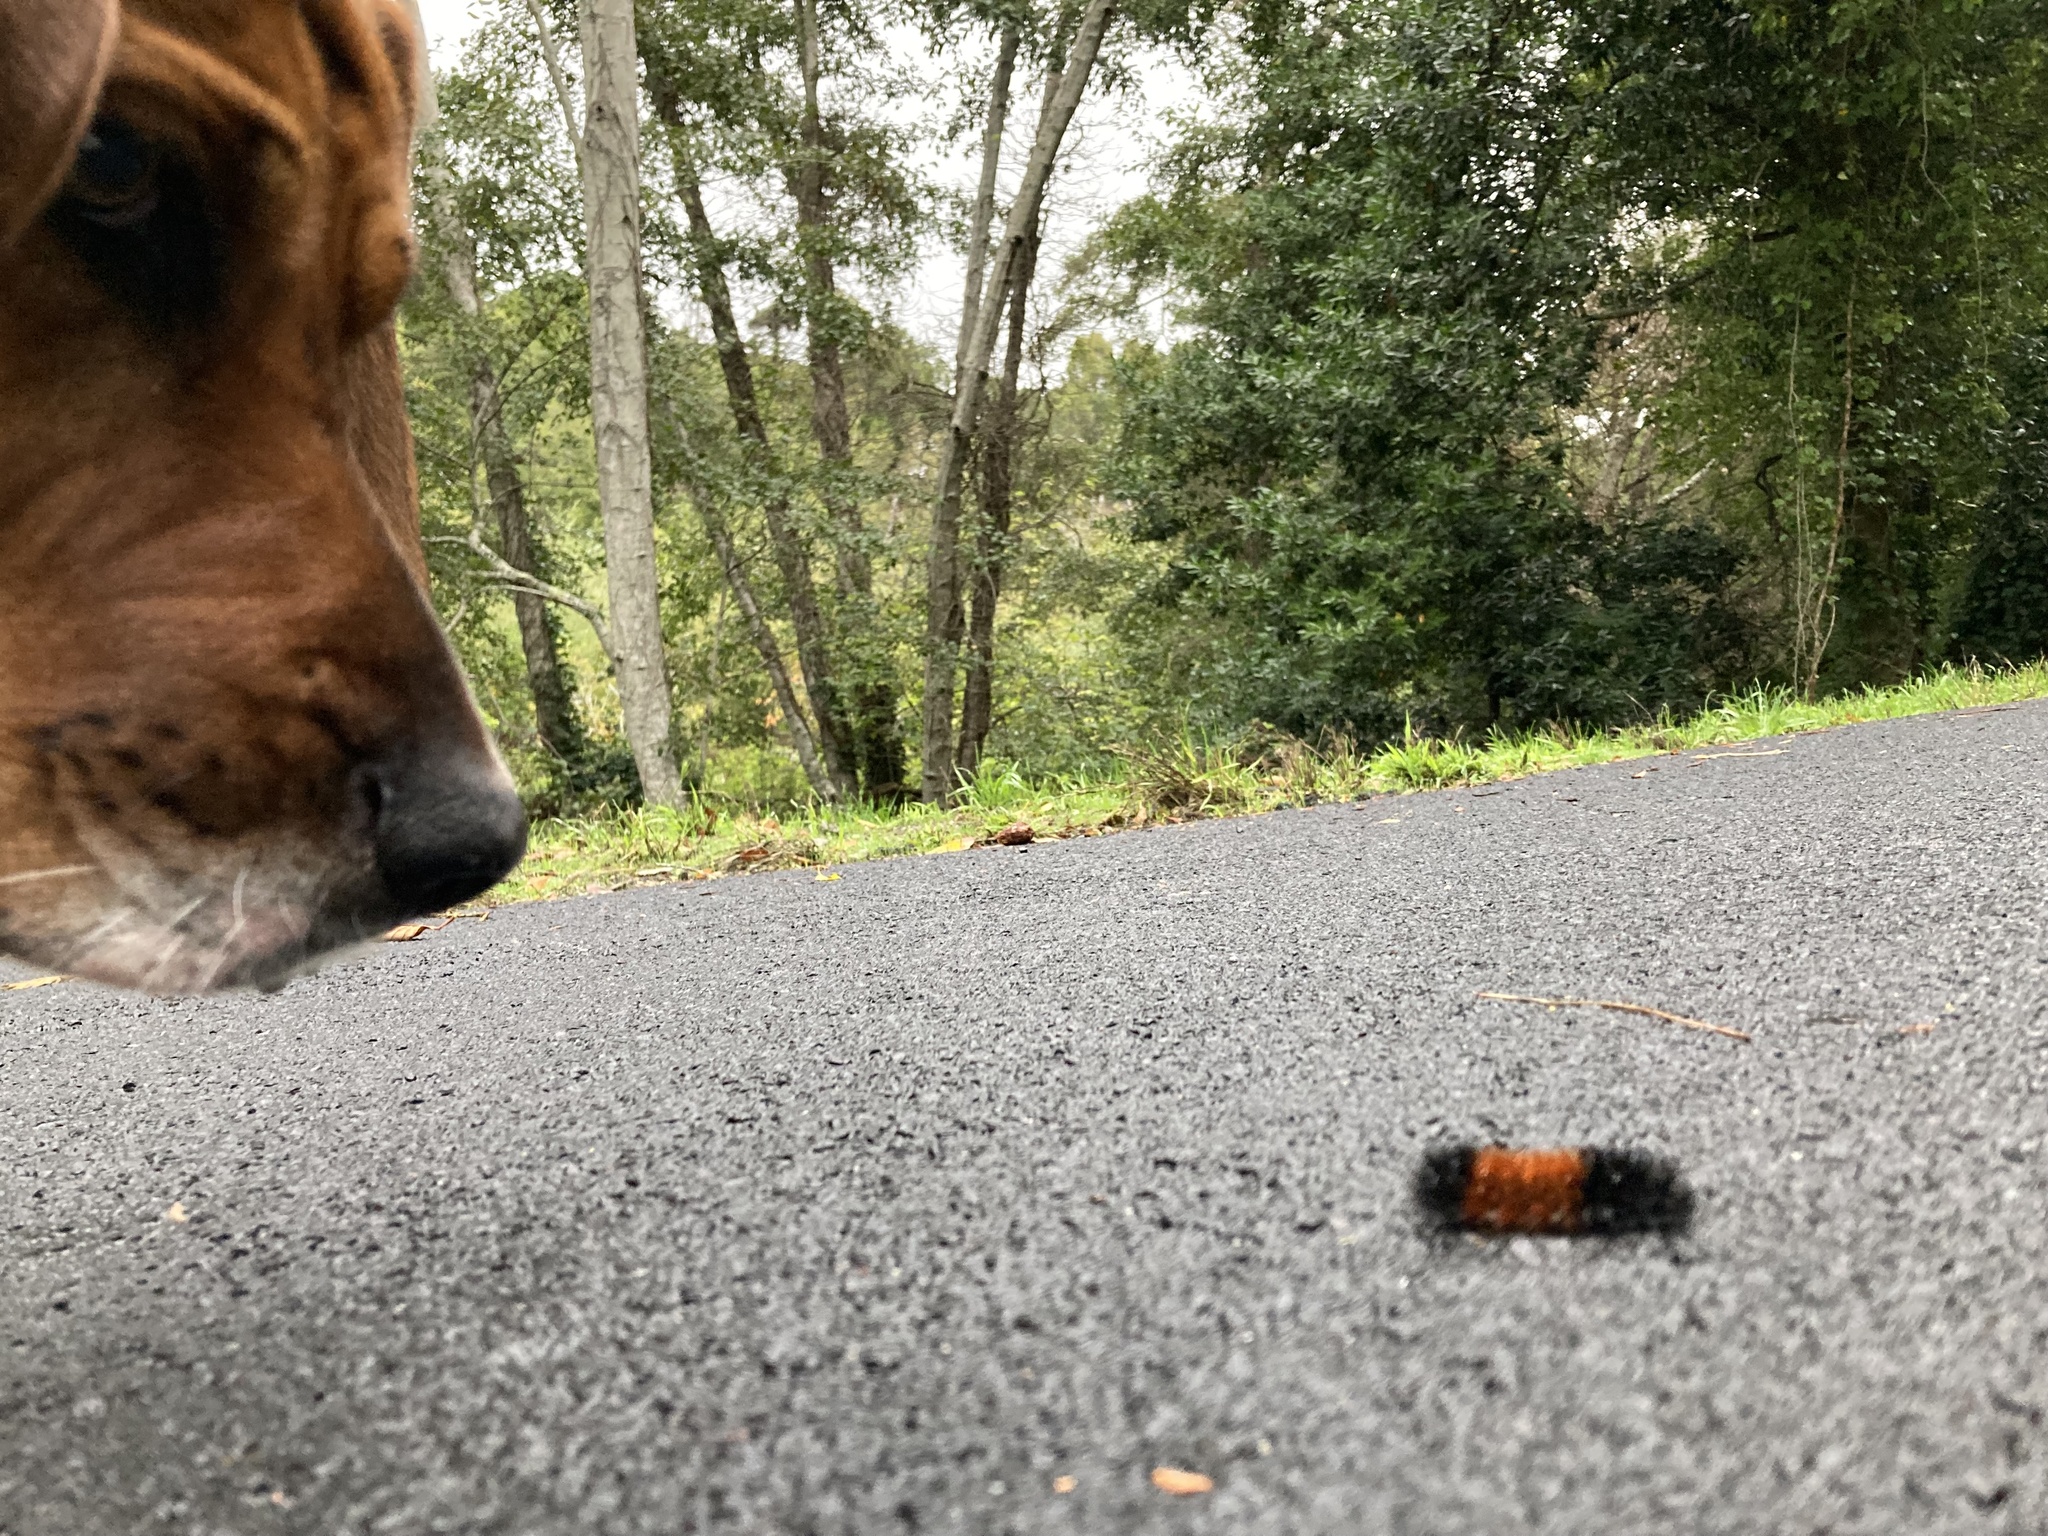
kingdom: Animalia
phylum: Arthropoda
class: Insecta
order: Lepidoptera
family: Erebidae
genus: Pyrrharctia
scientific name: Pyrrharctia isabella
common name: Isabella tiger moth
